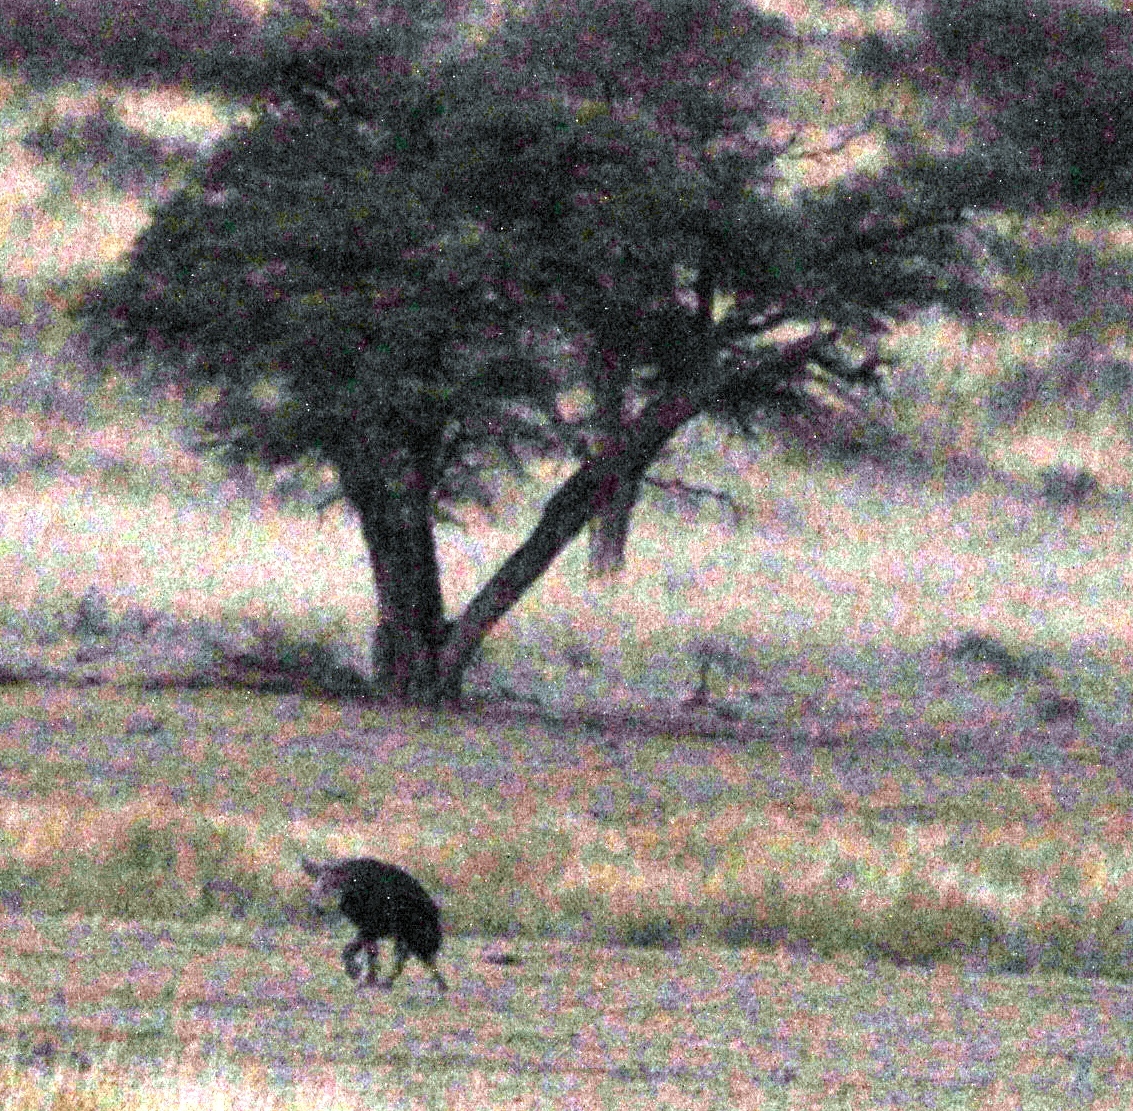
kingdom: Animalia
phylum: Chordata
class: Mammalia
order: Carnivora
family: Hyaenidae
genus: Hyaena
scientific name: Hyaena brunnea
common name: Brown hyena
